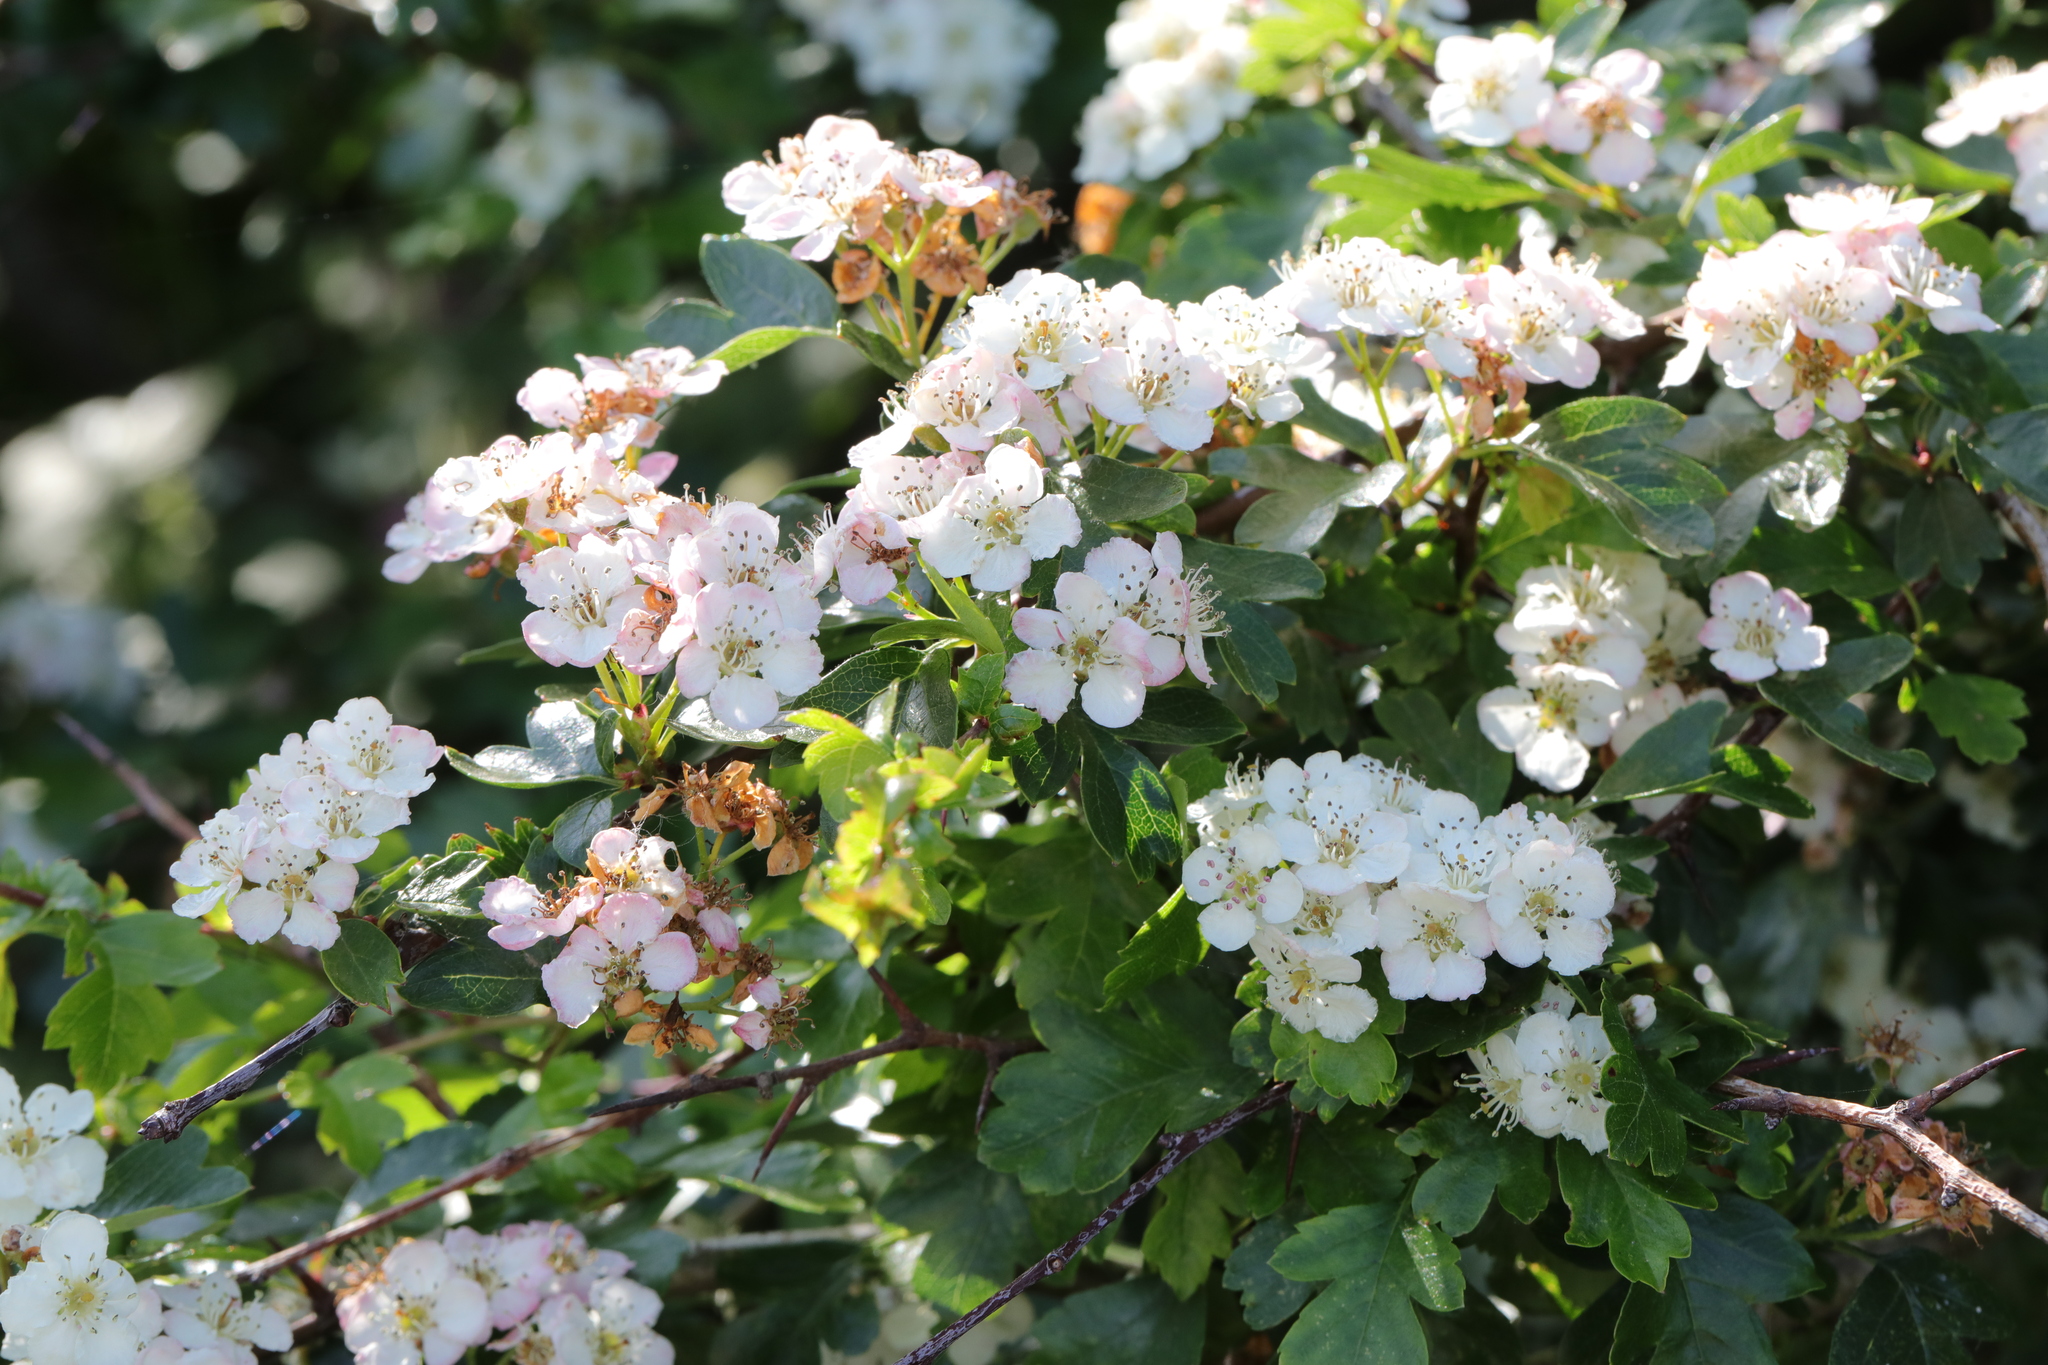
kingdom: Plantae
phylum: Tracheophyta
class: Magnoliopsida
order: Rosales
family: Rosaceae
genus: Crataegus
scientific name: Crataegus monogyna
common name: Hawthorn
